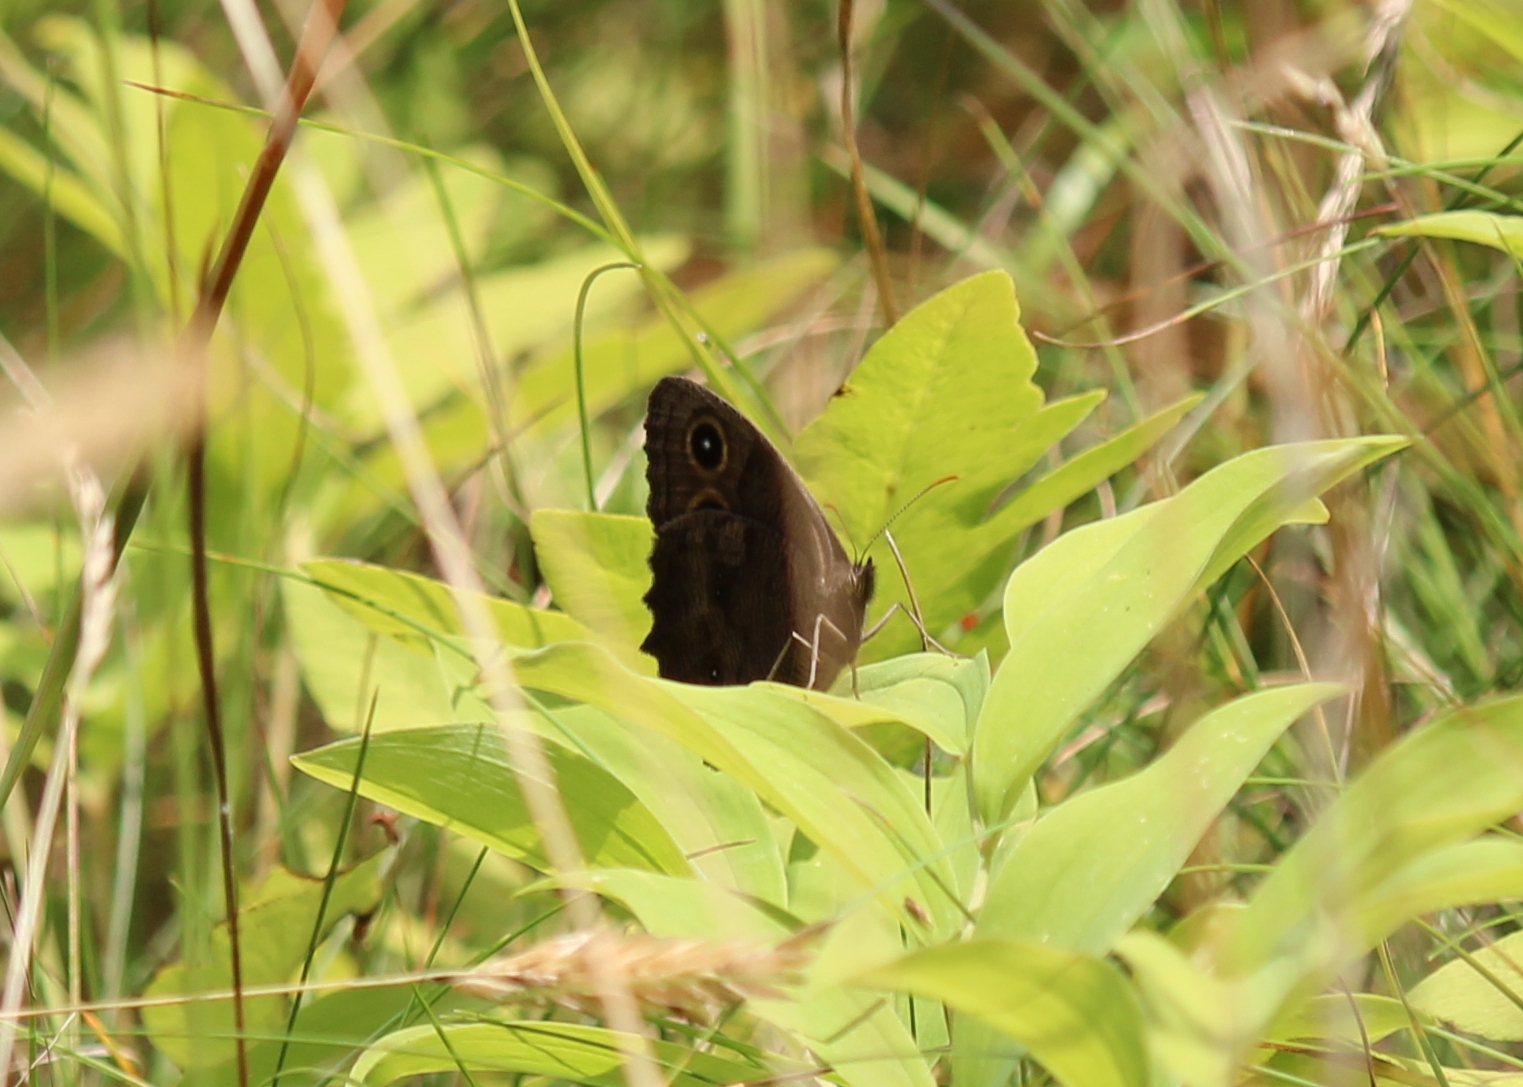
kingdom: Animalia
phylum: Arthropoda
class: Insecta
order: Lepidoptera
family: Nymphalidae
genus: Cercyonis
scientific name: Cercyonis pegala
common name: Common wood-nymph
